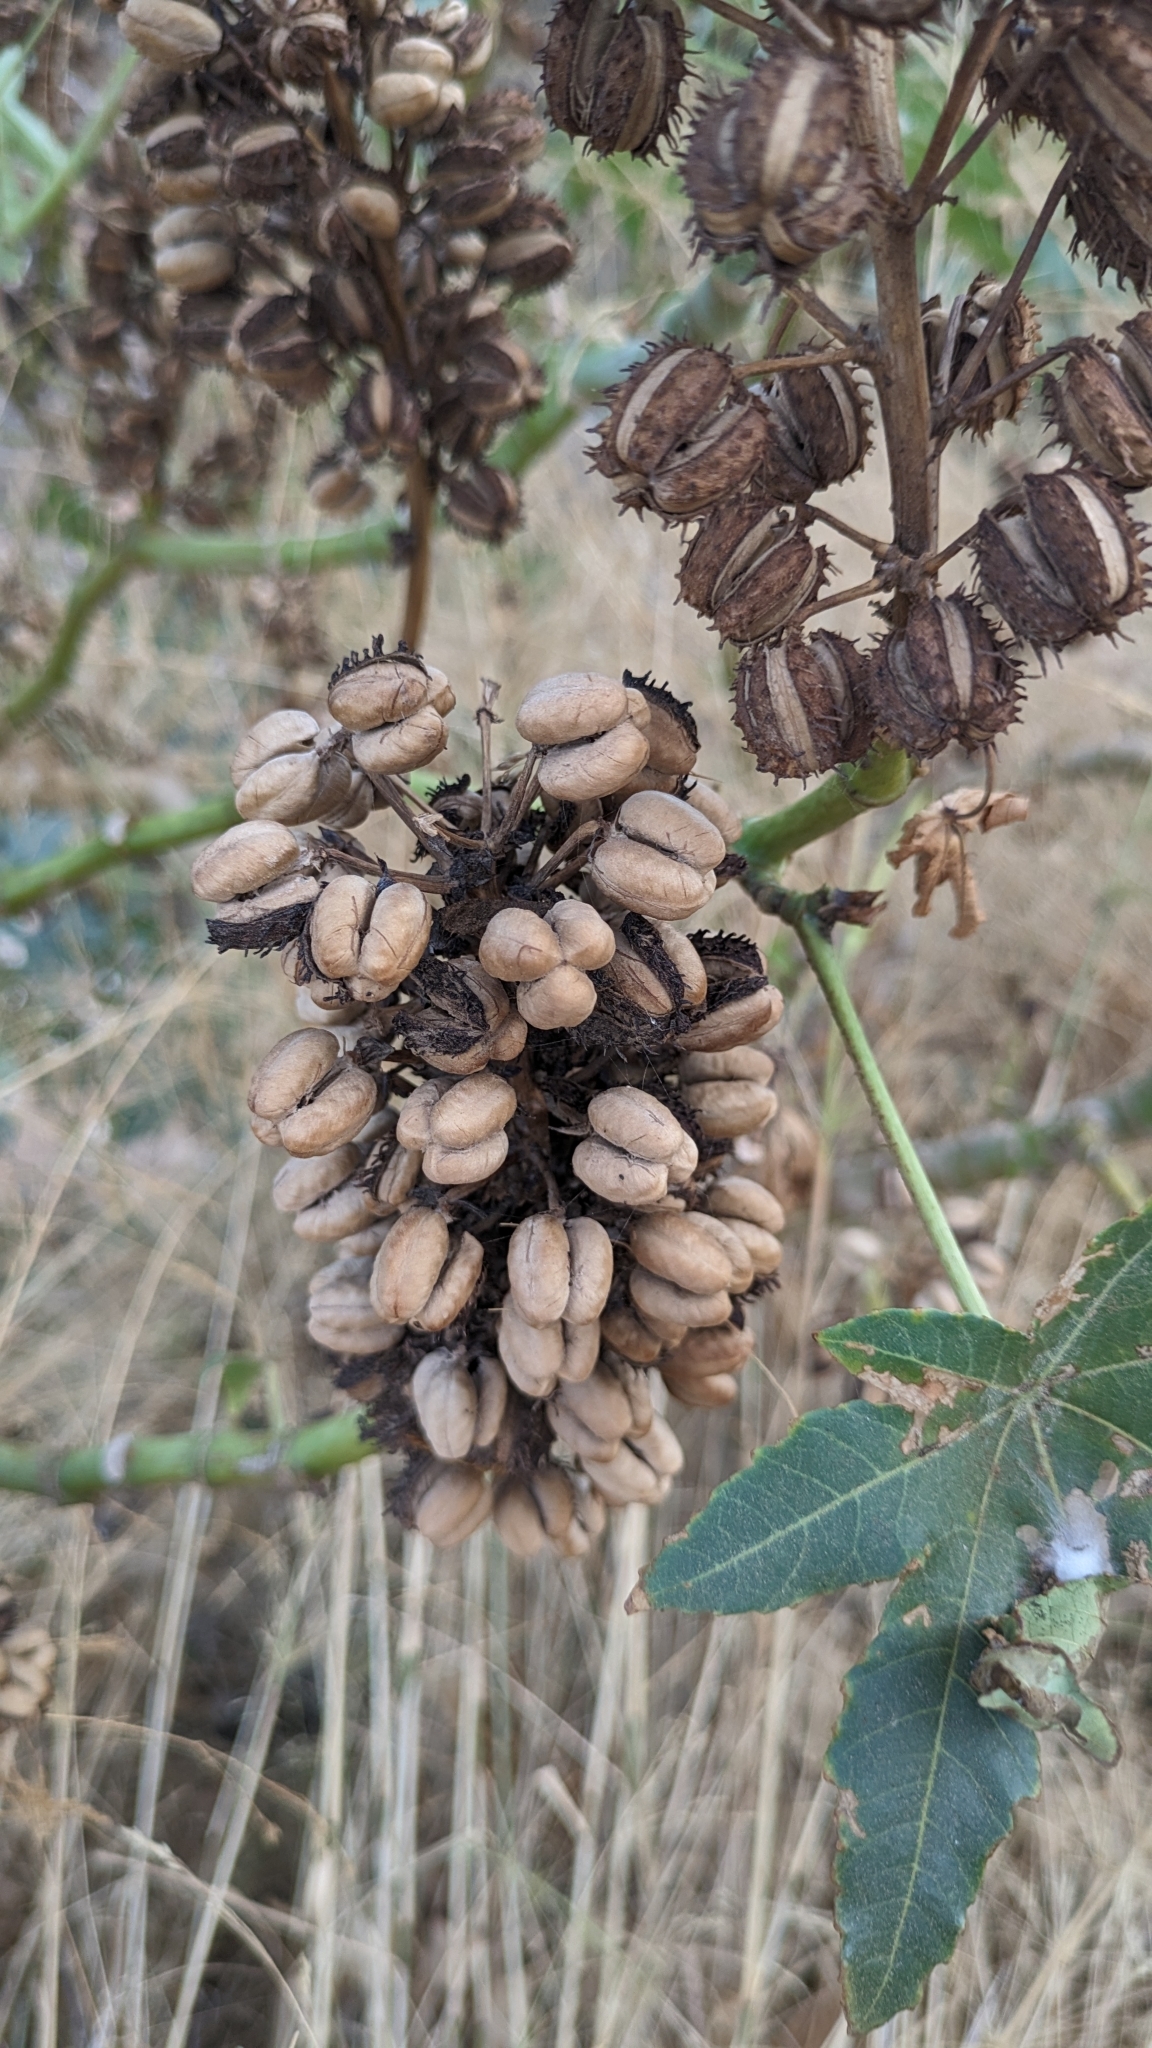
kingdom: Plantae
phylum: Tracheophyta
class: Magnoliopsida
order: Malpighiales
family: Euphorbiaceae
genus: Ricinus
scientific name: Ricinus communis
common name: Castor-oil-plant
